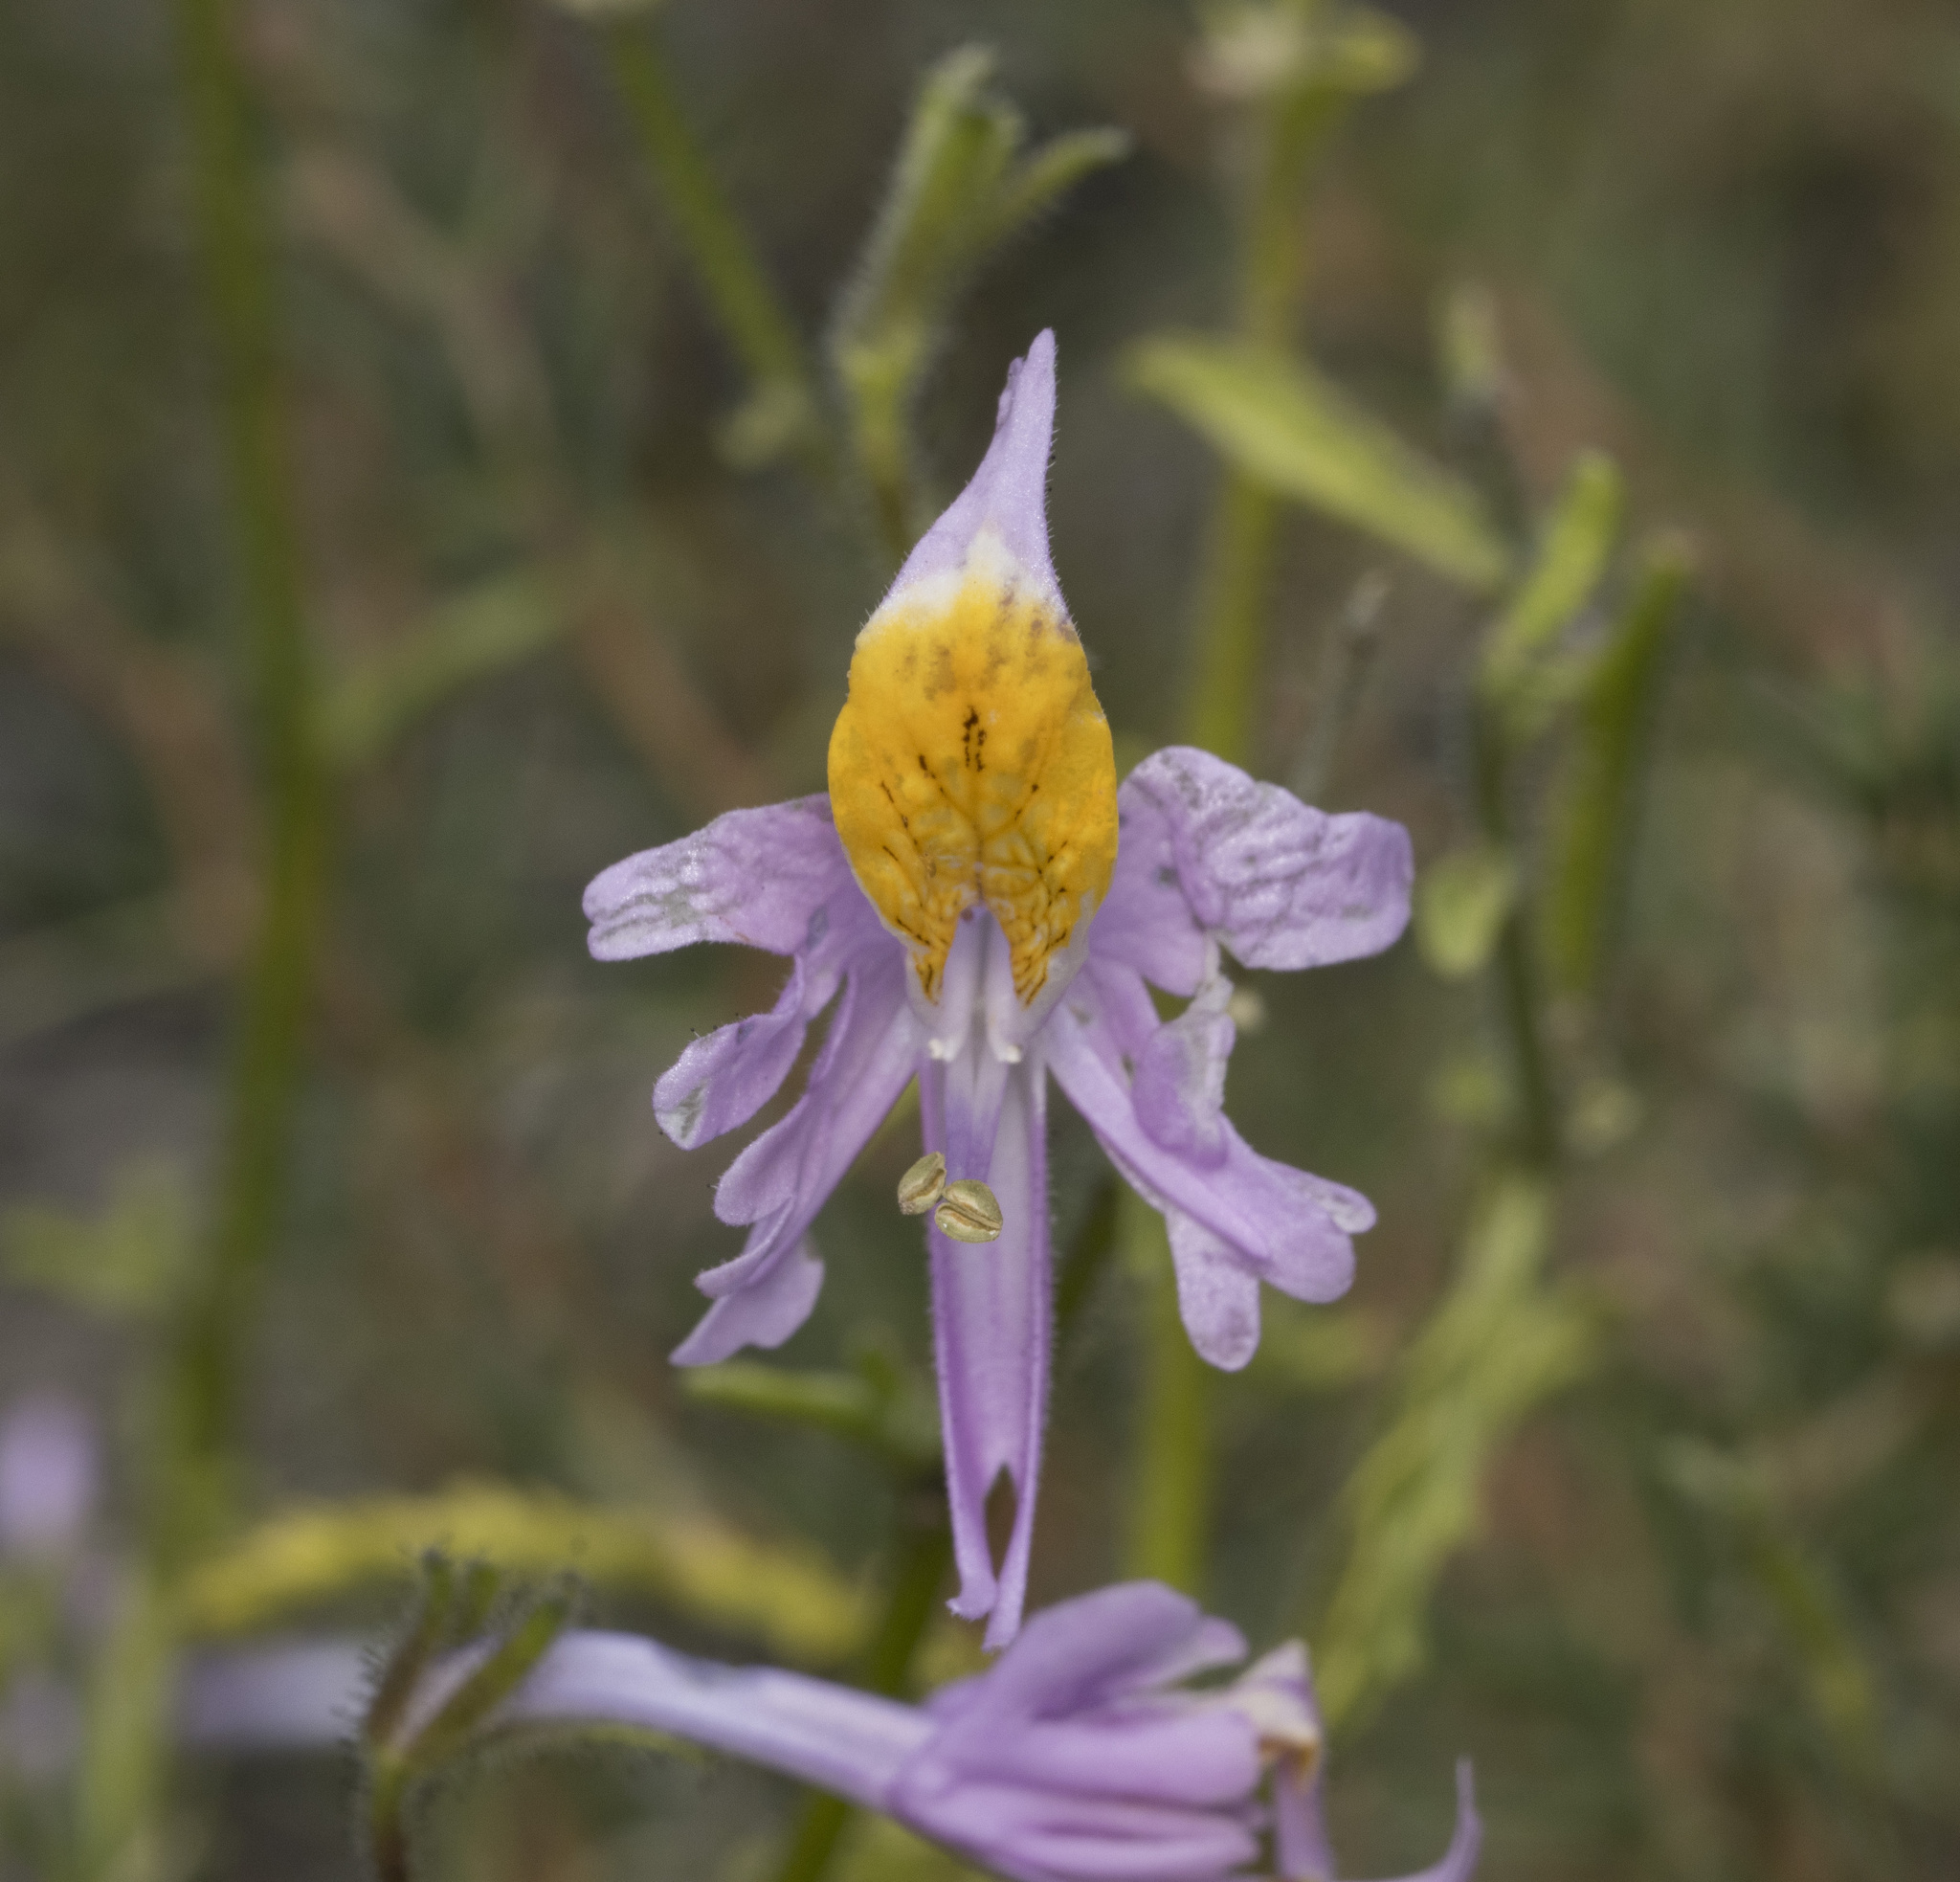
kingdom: Plantae
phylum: Tracheophyta
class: Magnoliopsida
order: Solanales
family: Solanaceae
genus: Schizanthus
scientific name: Schizanthus hookeri
